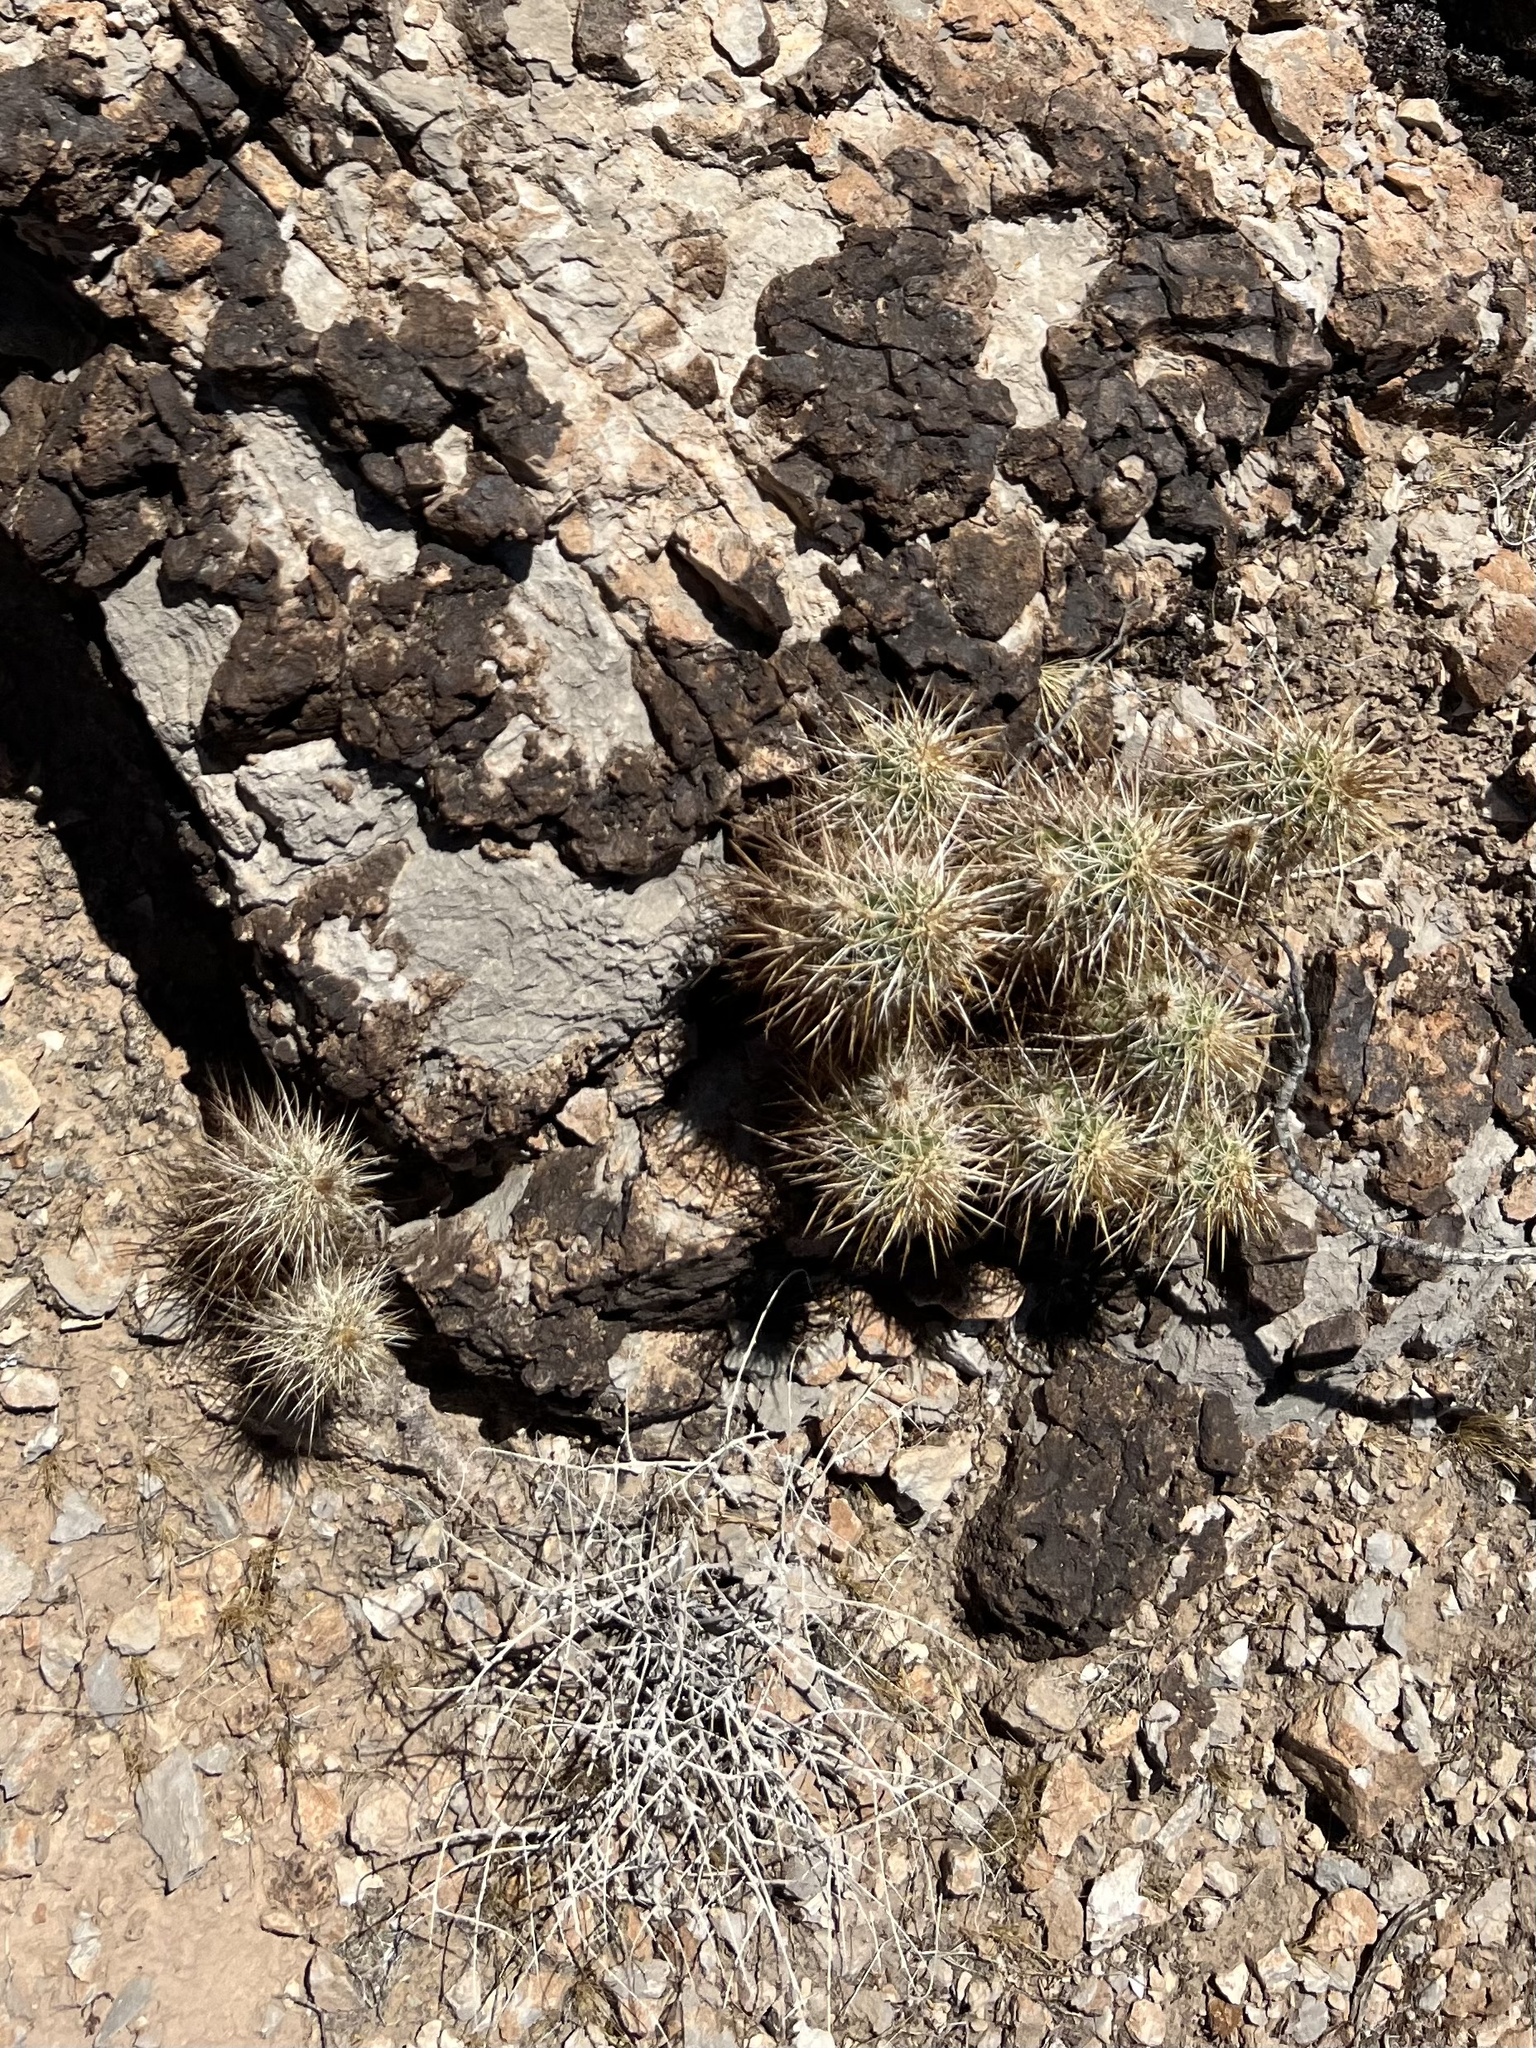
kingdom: Plantae
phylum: Tracheophyta
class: Magnoliopsida
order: Caryophyllales
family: Cactaceae
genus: Echinocereus
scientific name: Echinocereus engelmannii
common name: Engelmann's hedgehog cactus
